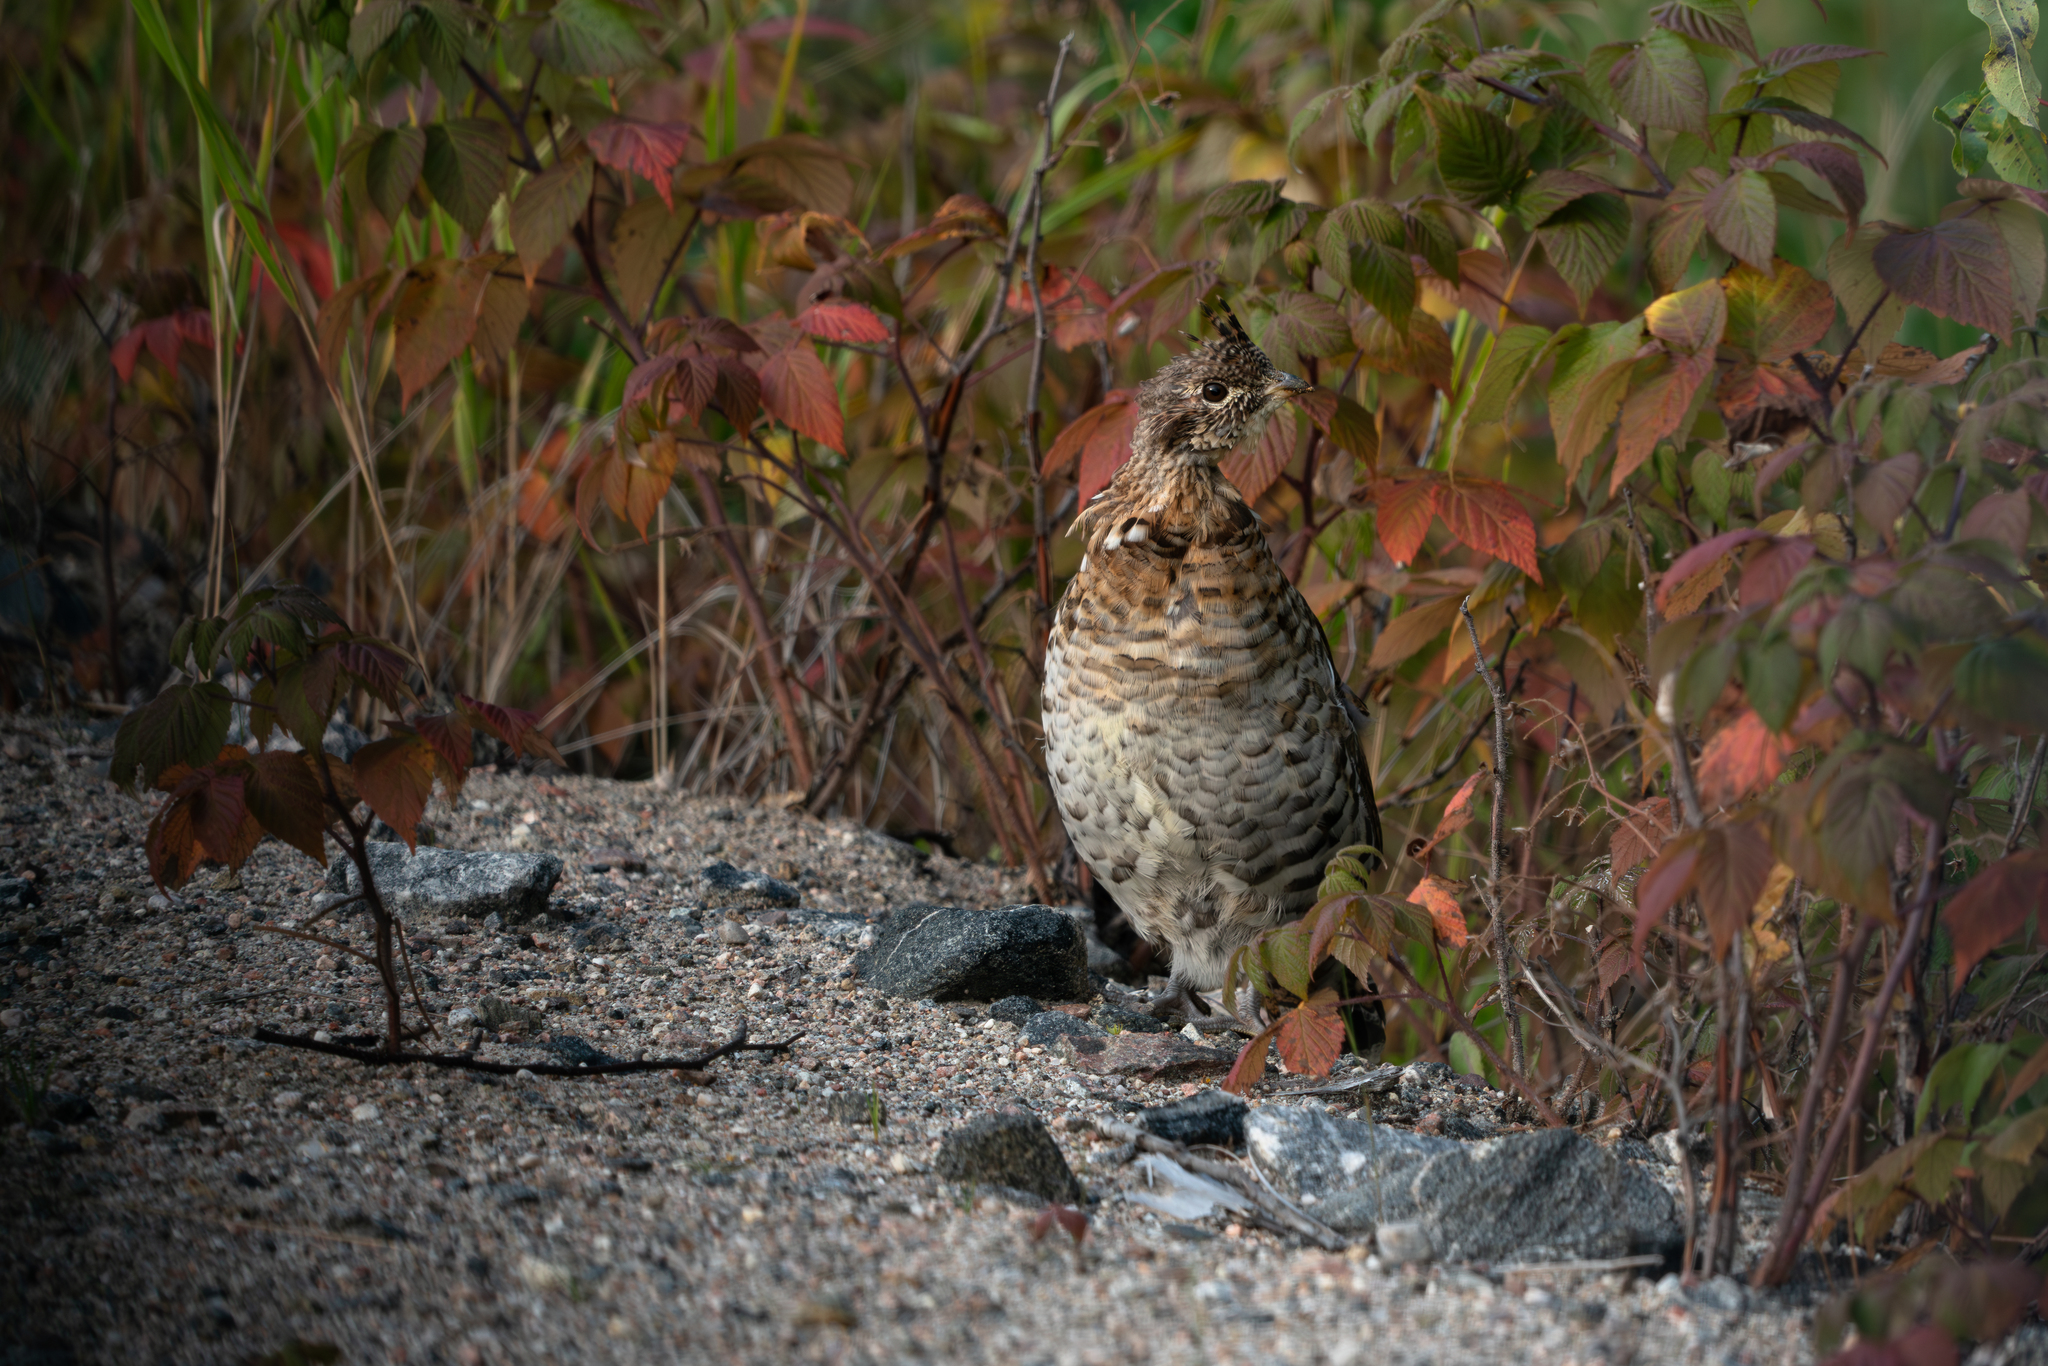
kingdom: Animalia
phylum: Chordata
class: Aves
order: Galliformes
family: Phasianidae
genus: Bonasa
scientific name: Bonasa umbellus
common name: Ruffed grouse
